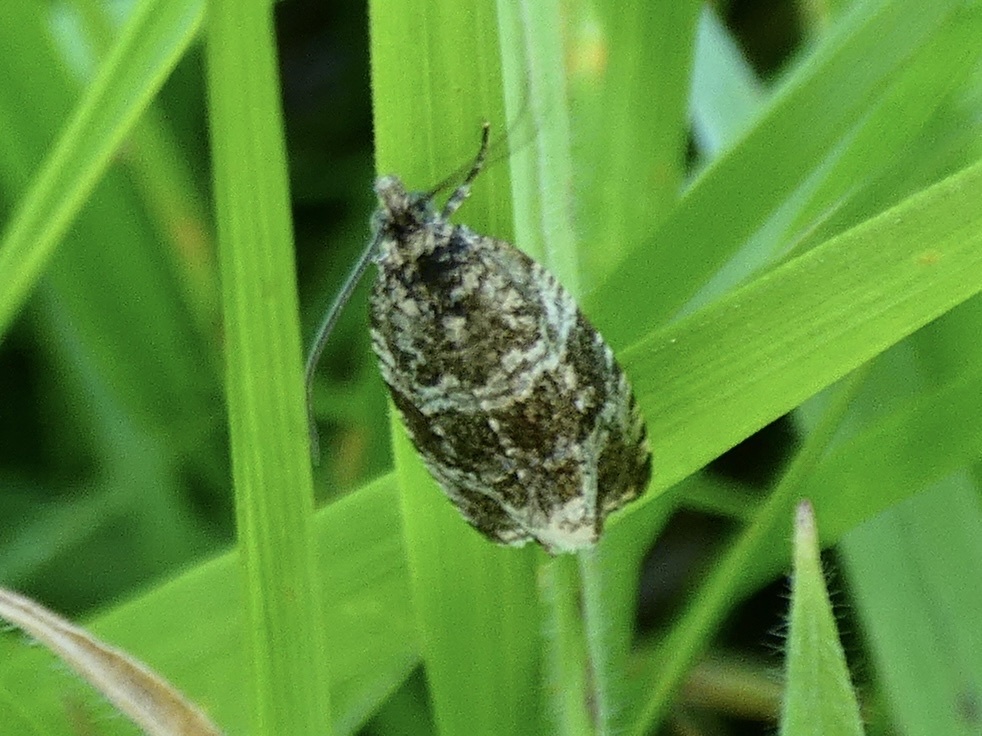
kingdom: Animalia
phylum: Arthropoda
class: Insecta
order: Lepidoptera
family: Tortricidae
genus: Syricoris
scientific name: Syricoris lacunana
